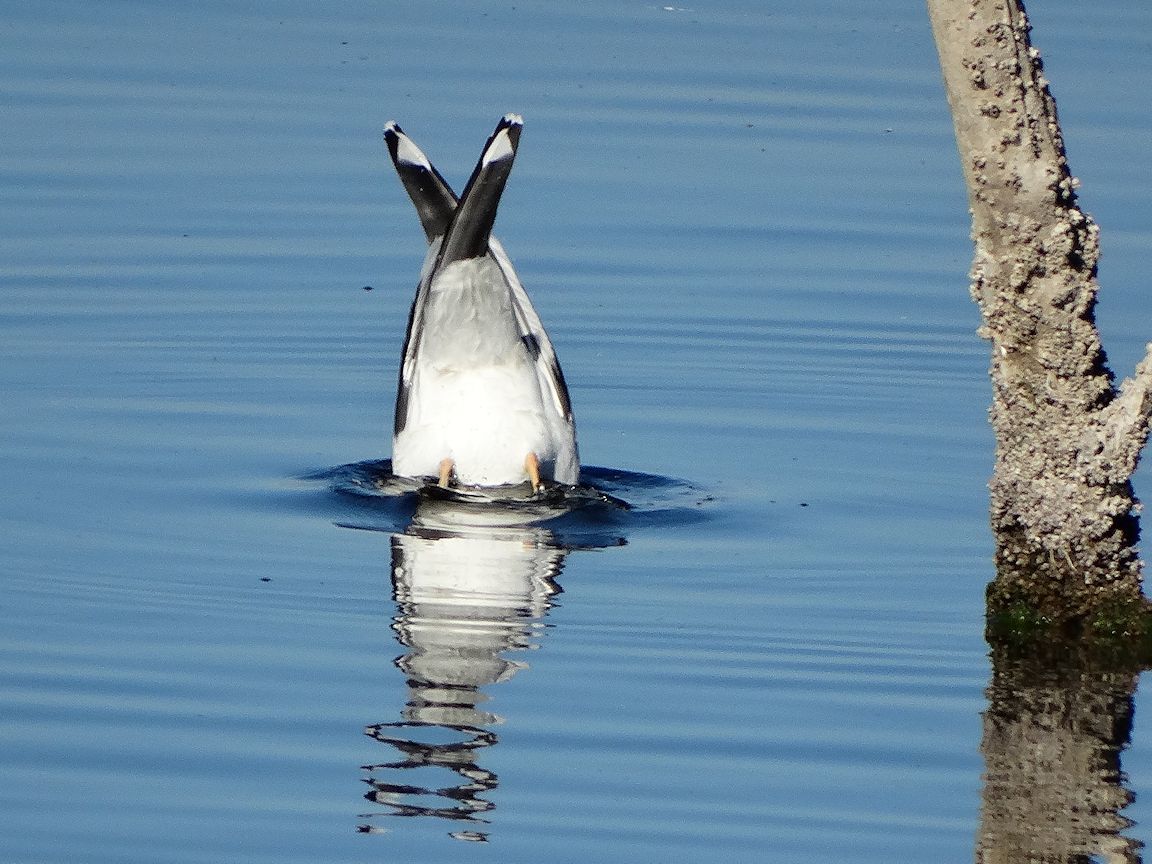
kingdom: Animalia
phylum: Chordata
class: Aves
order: Charadriiformes
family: Laridae
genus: Larus
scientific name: Larus livens
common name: Yellow-footed gull
